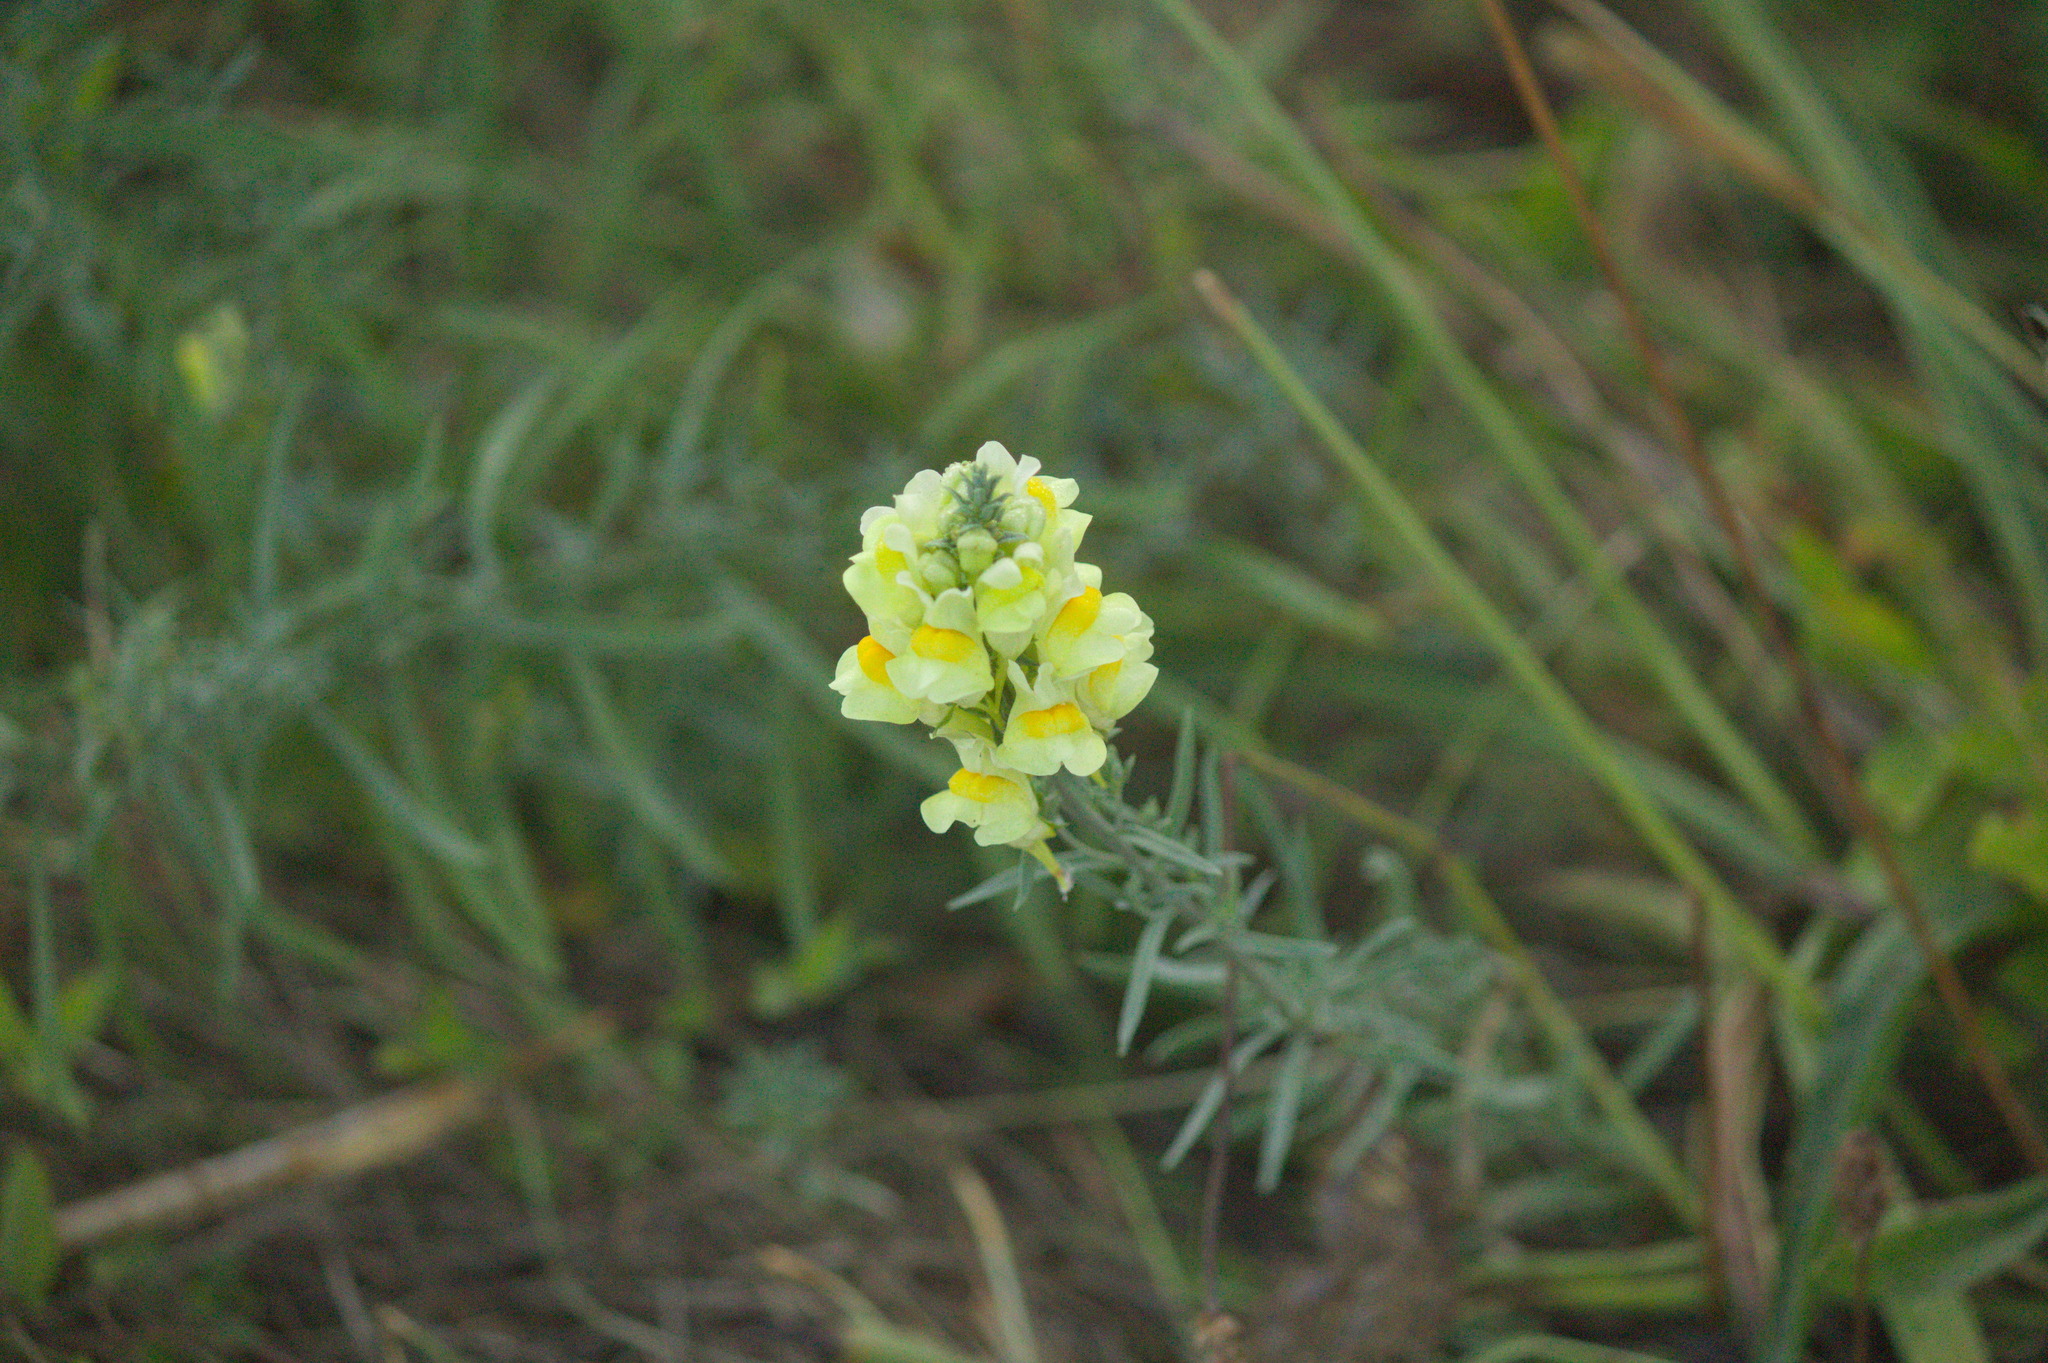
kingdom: Plantae
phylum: Tracheophyta
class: Magnoliopsida
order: Lamiales
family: Plantaginaceae
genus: Linaria
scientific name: Linaria vulgaris
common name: Butter and eggs
